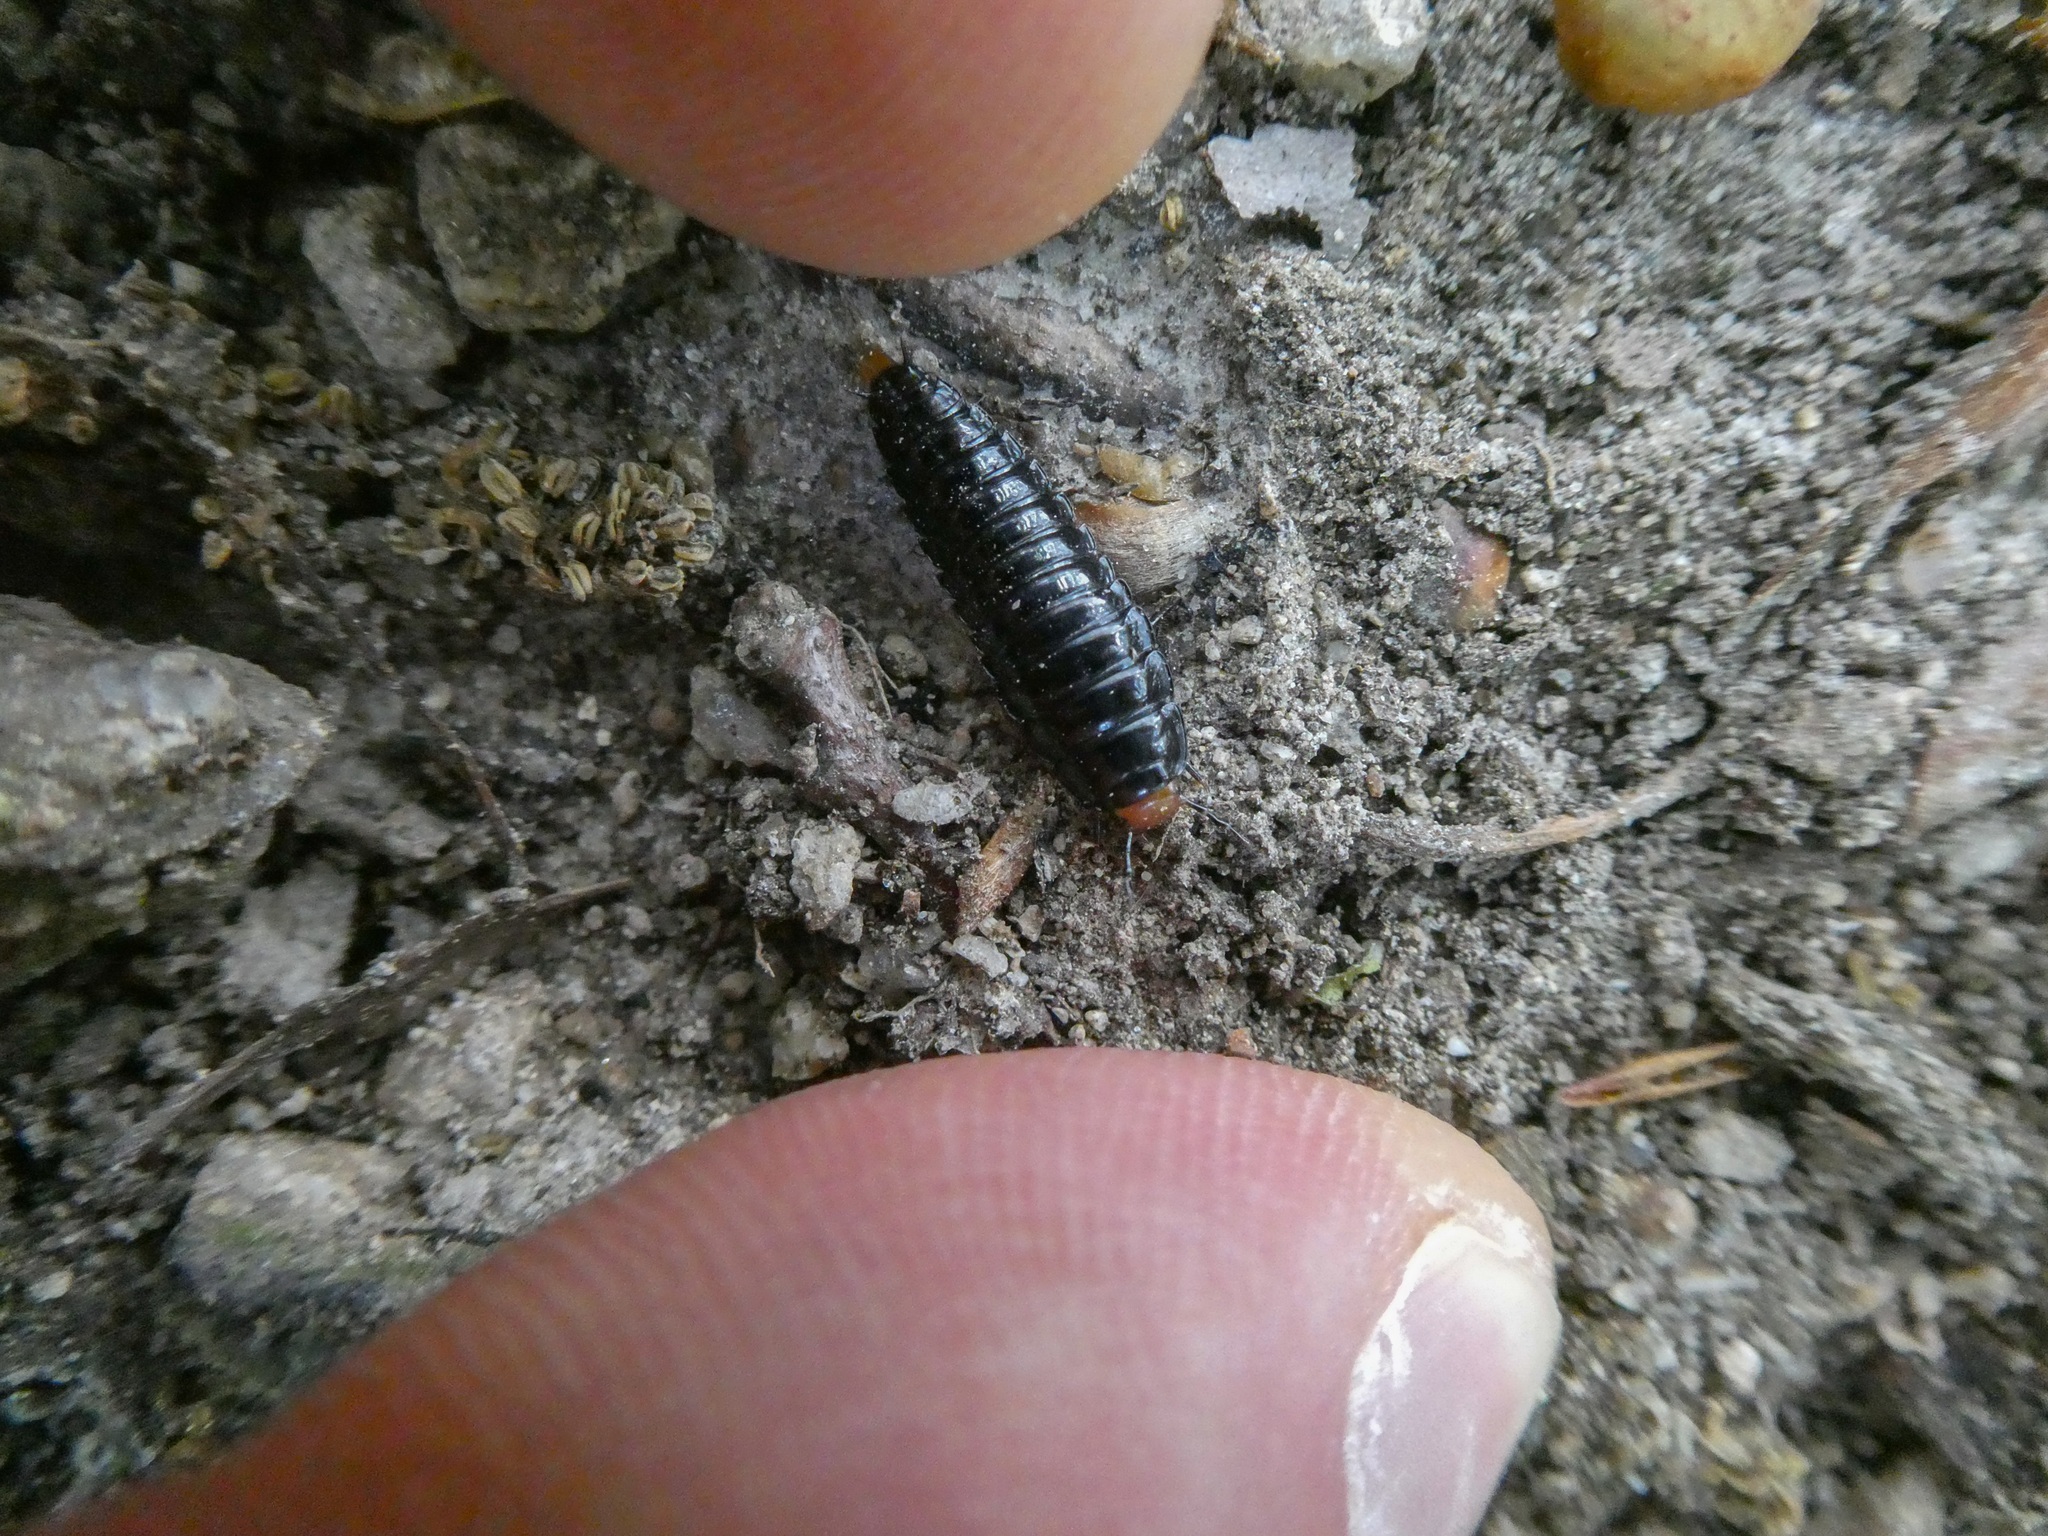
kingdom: Animalia
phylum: Arthropoda
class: Insecta
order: Coleoptera
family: Staphylinidae
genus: Dendroxena
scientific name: Dendroxena quadrimaculata
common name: Carrion beetle
